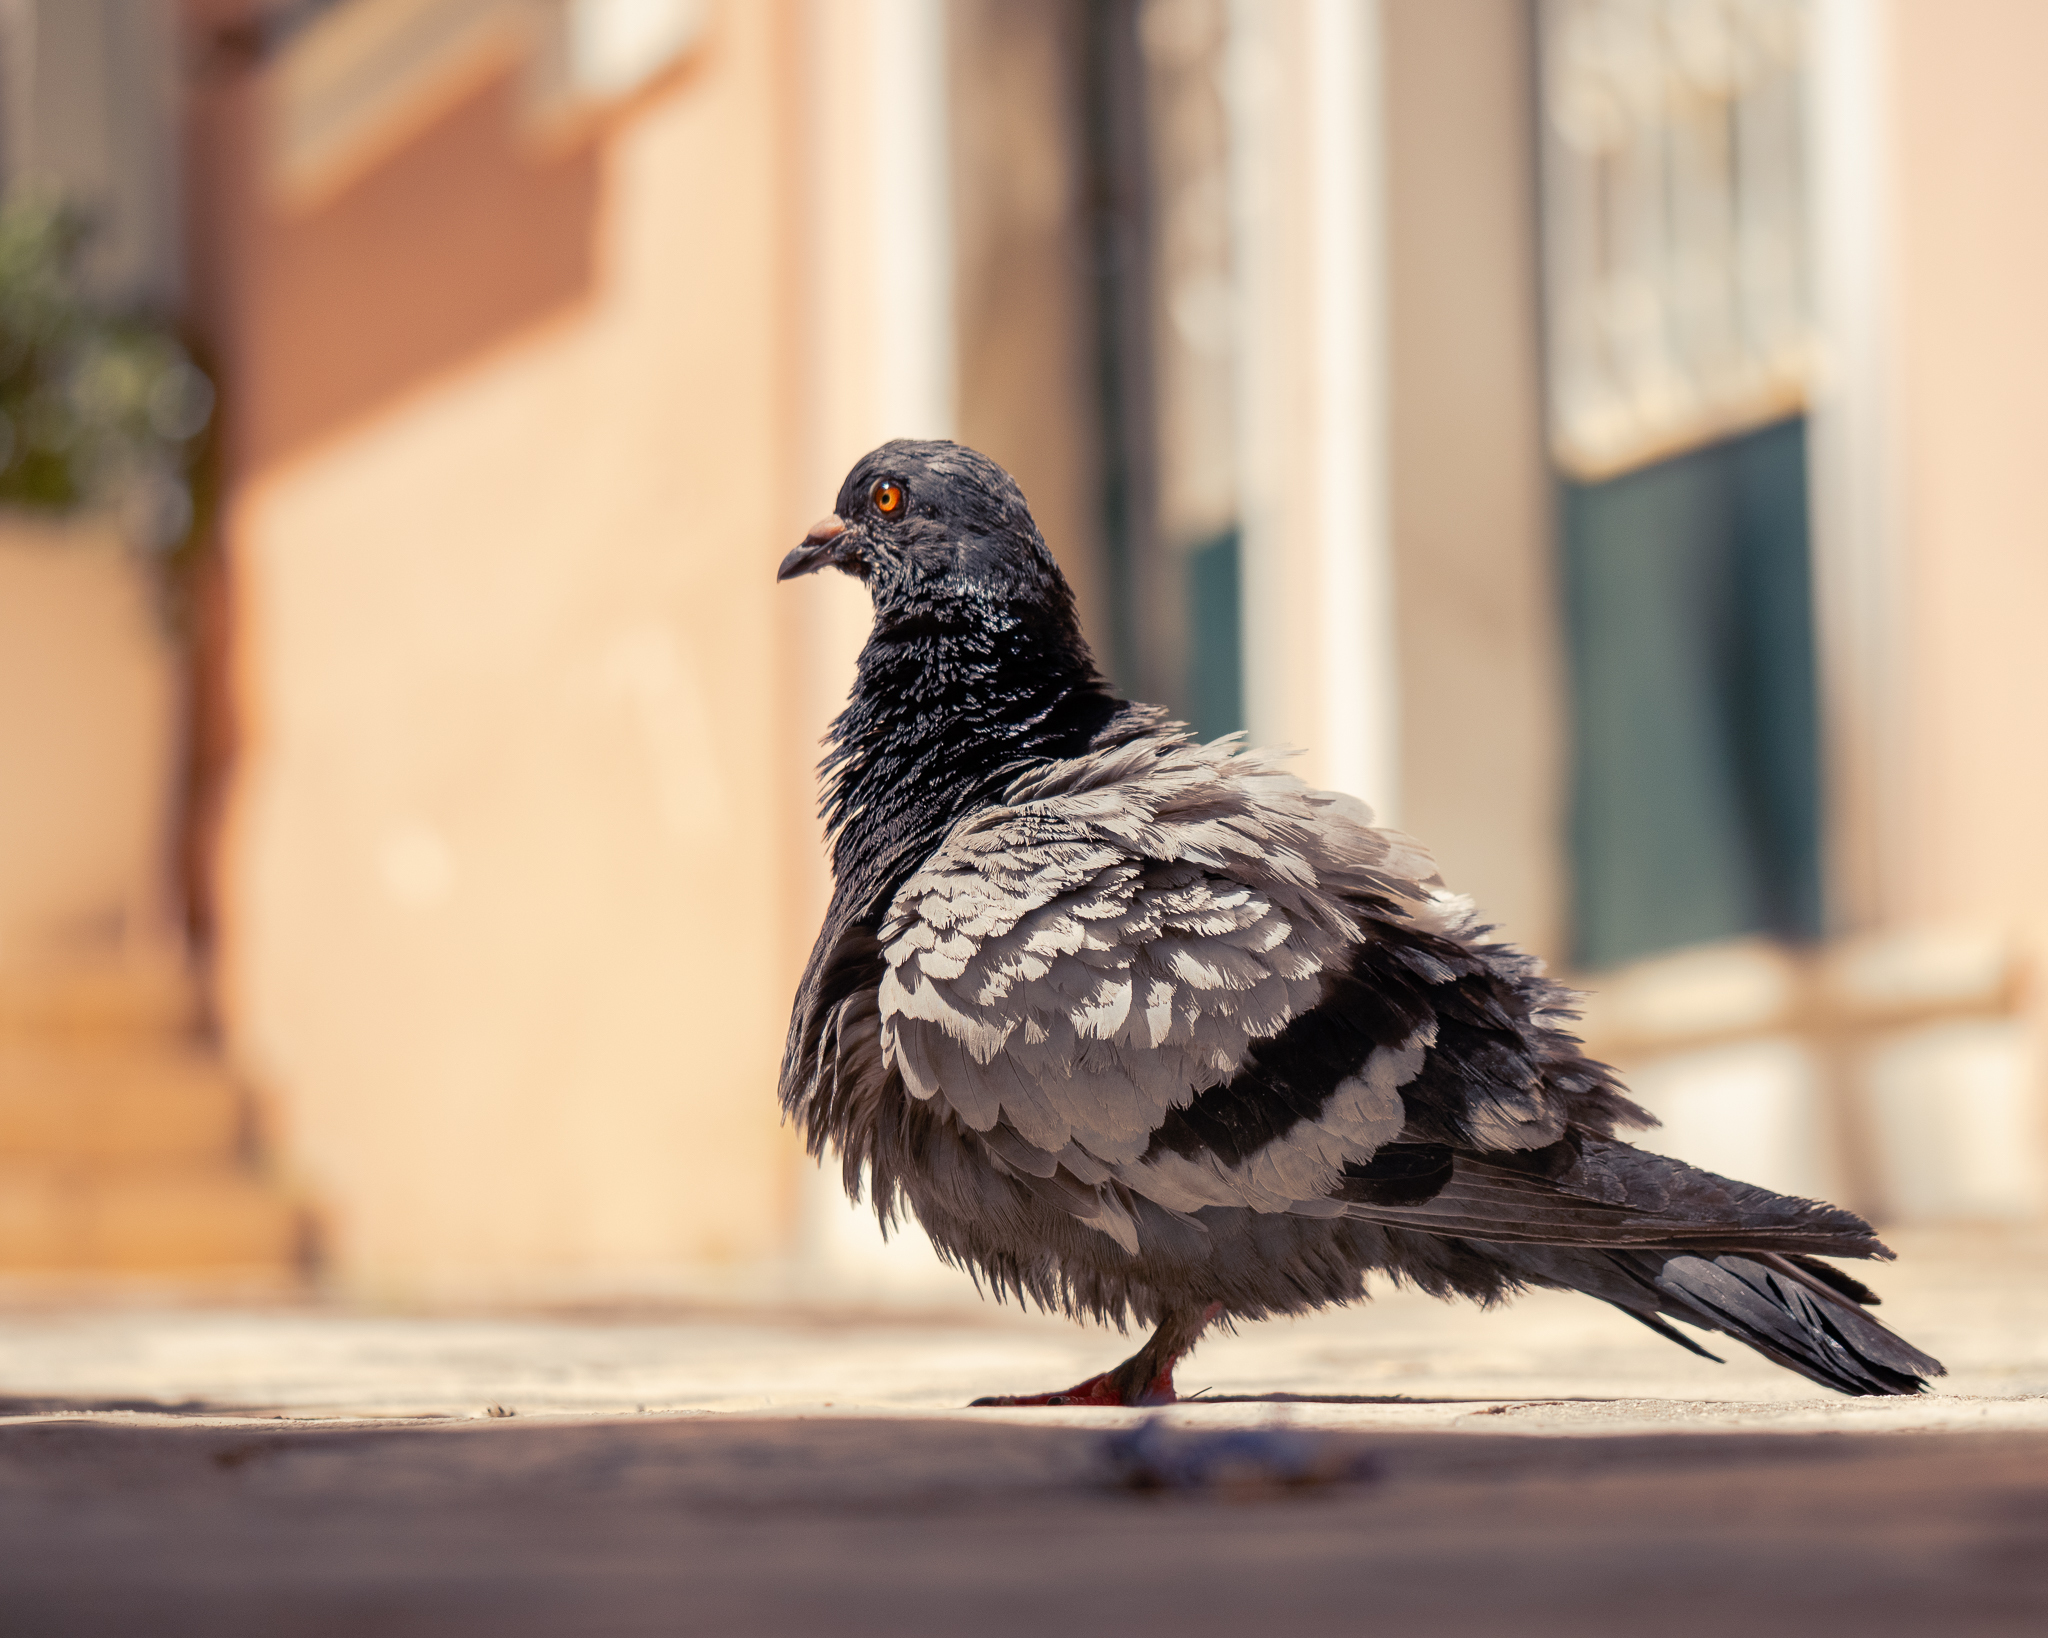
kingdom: Animalia
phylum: Chordata
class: Aves
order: Columbiformes
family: Columbidae
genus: Columba
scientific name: Columba livia
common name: Rock pigeon
